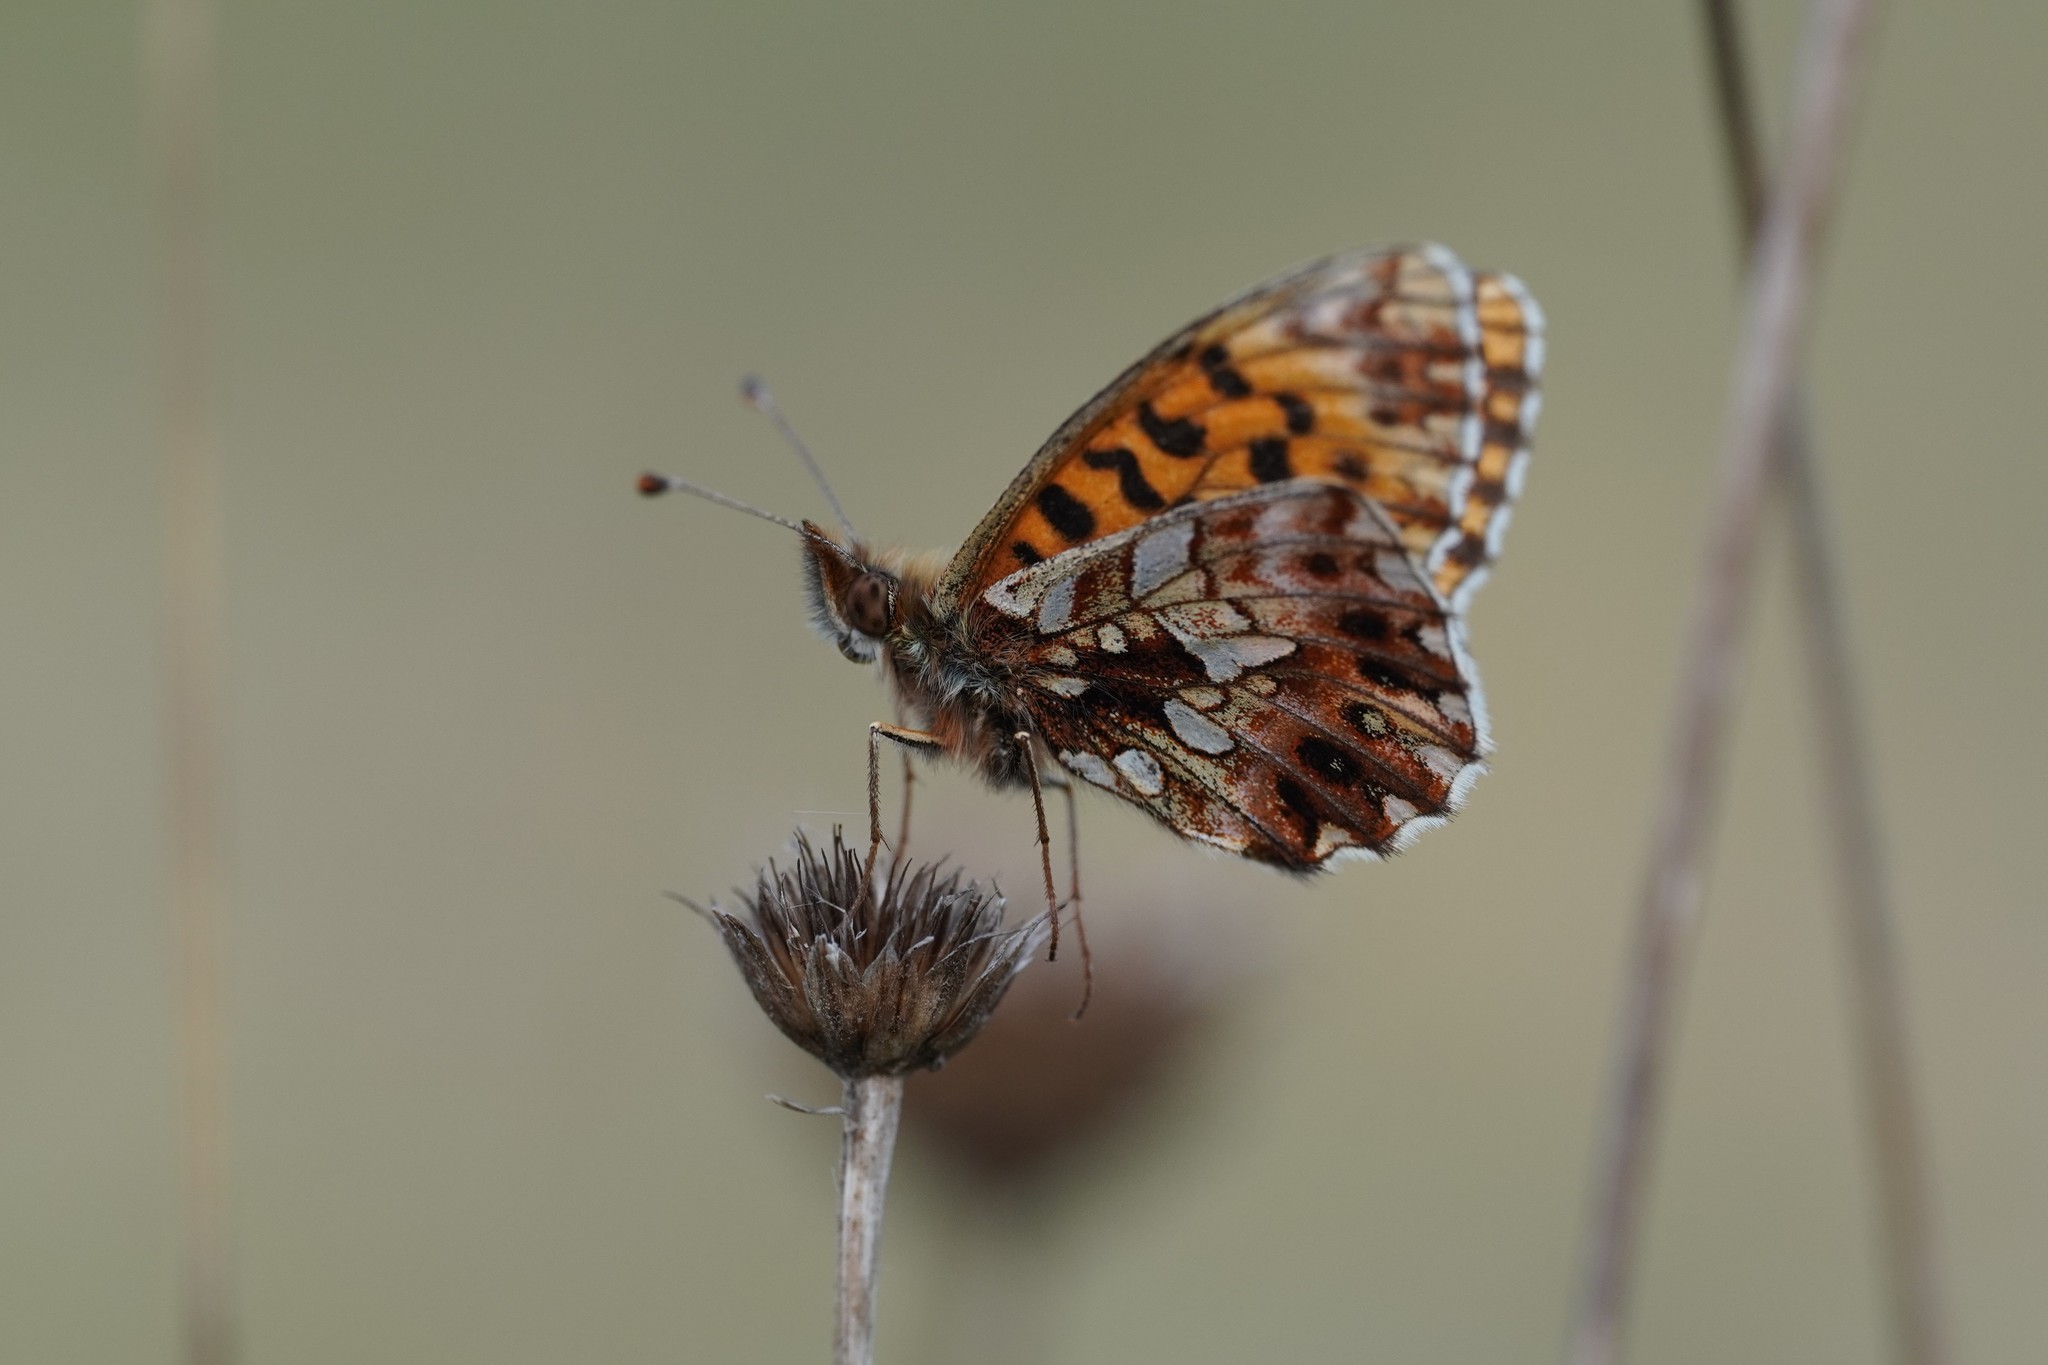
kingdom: Animalia
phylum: Arthropoda
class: Insecta
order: Lepidoptera
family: Nymphalidae
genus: Boloria
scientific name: Boloria dia
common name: Weaver's fritillary
